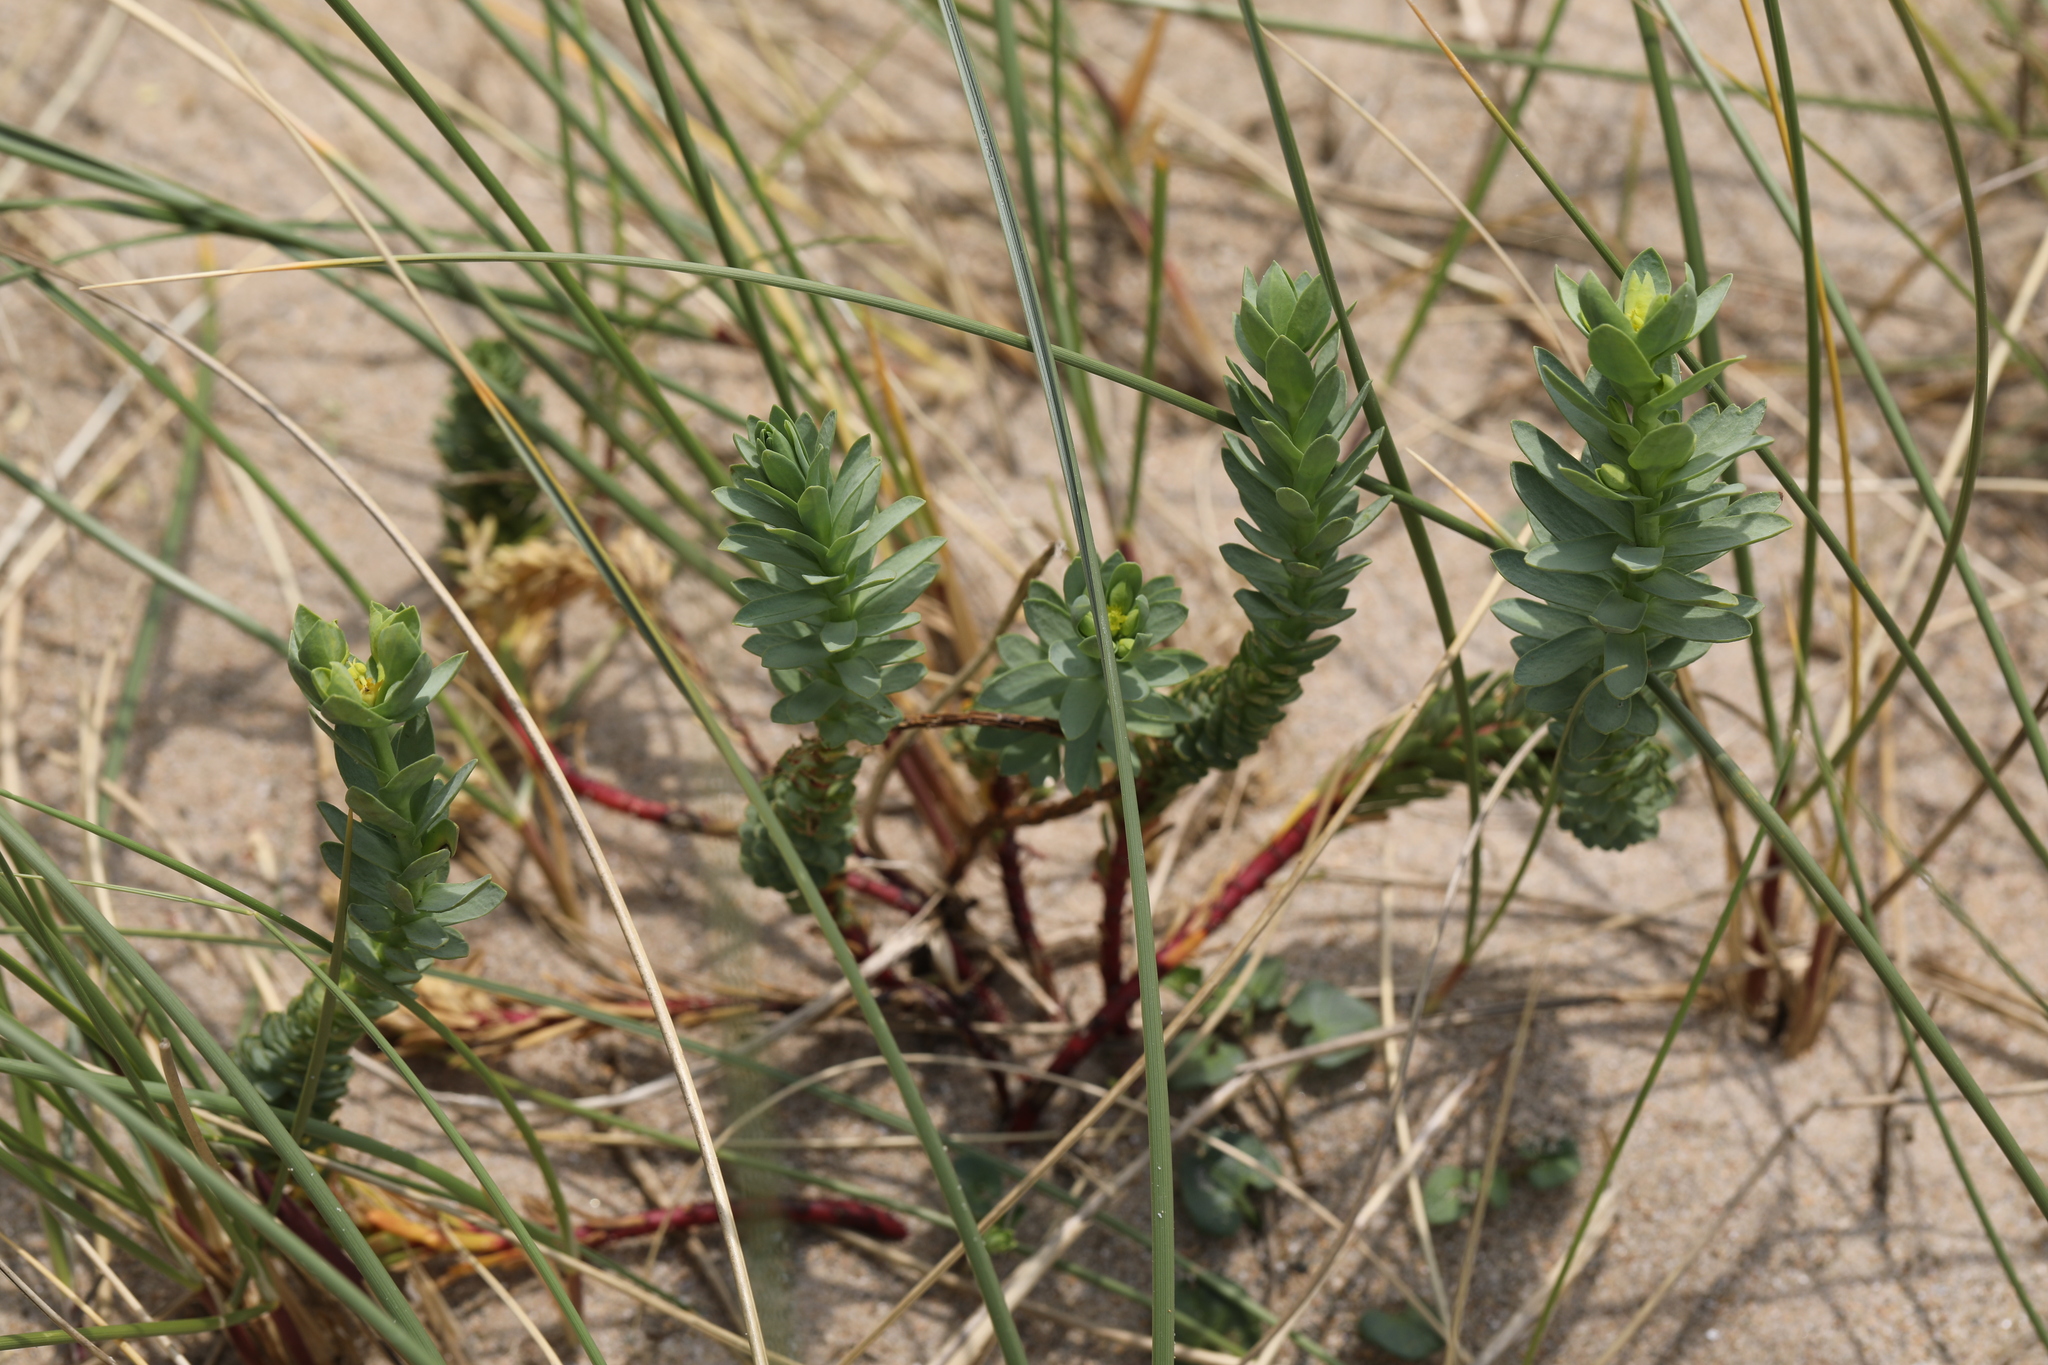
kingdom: Plantae
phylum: Tracheophyta
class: Magnoliopsida
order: Malpighiales
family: Euphorbiaceae
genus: Euphorbia
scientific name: Euphorbia paralias
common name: Sea spurge
